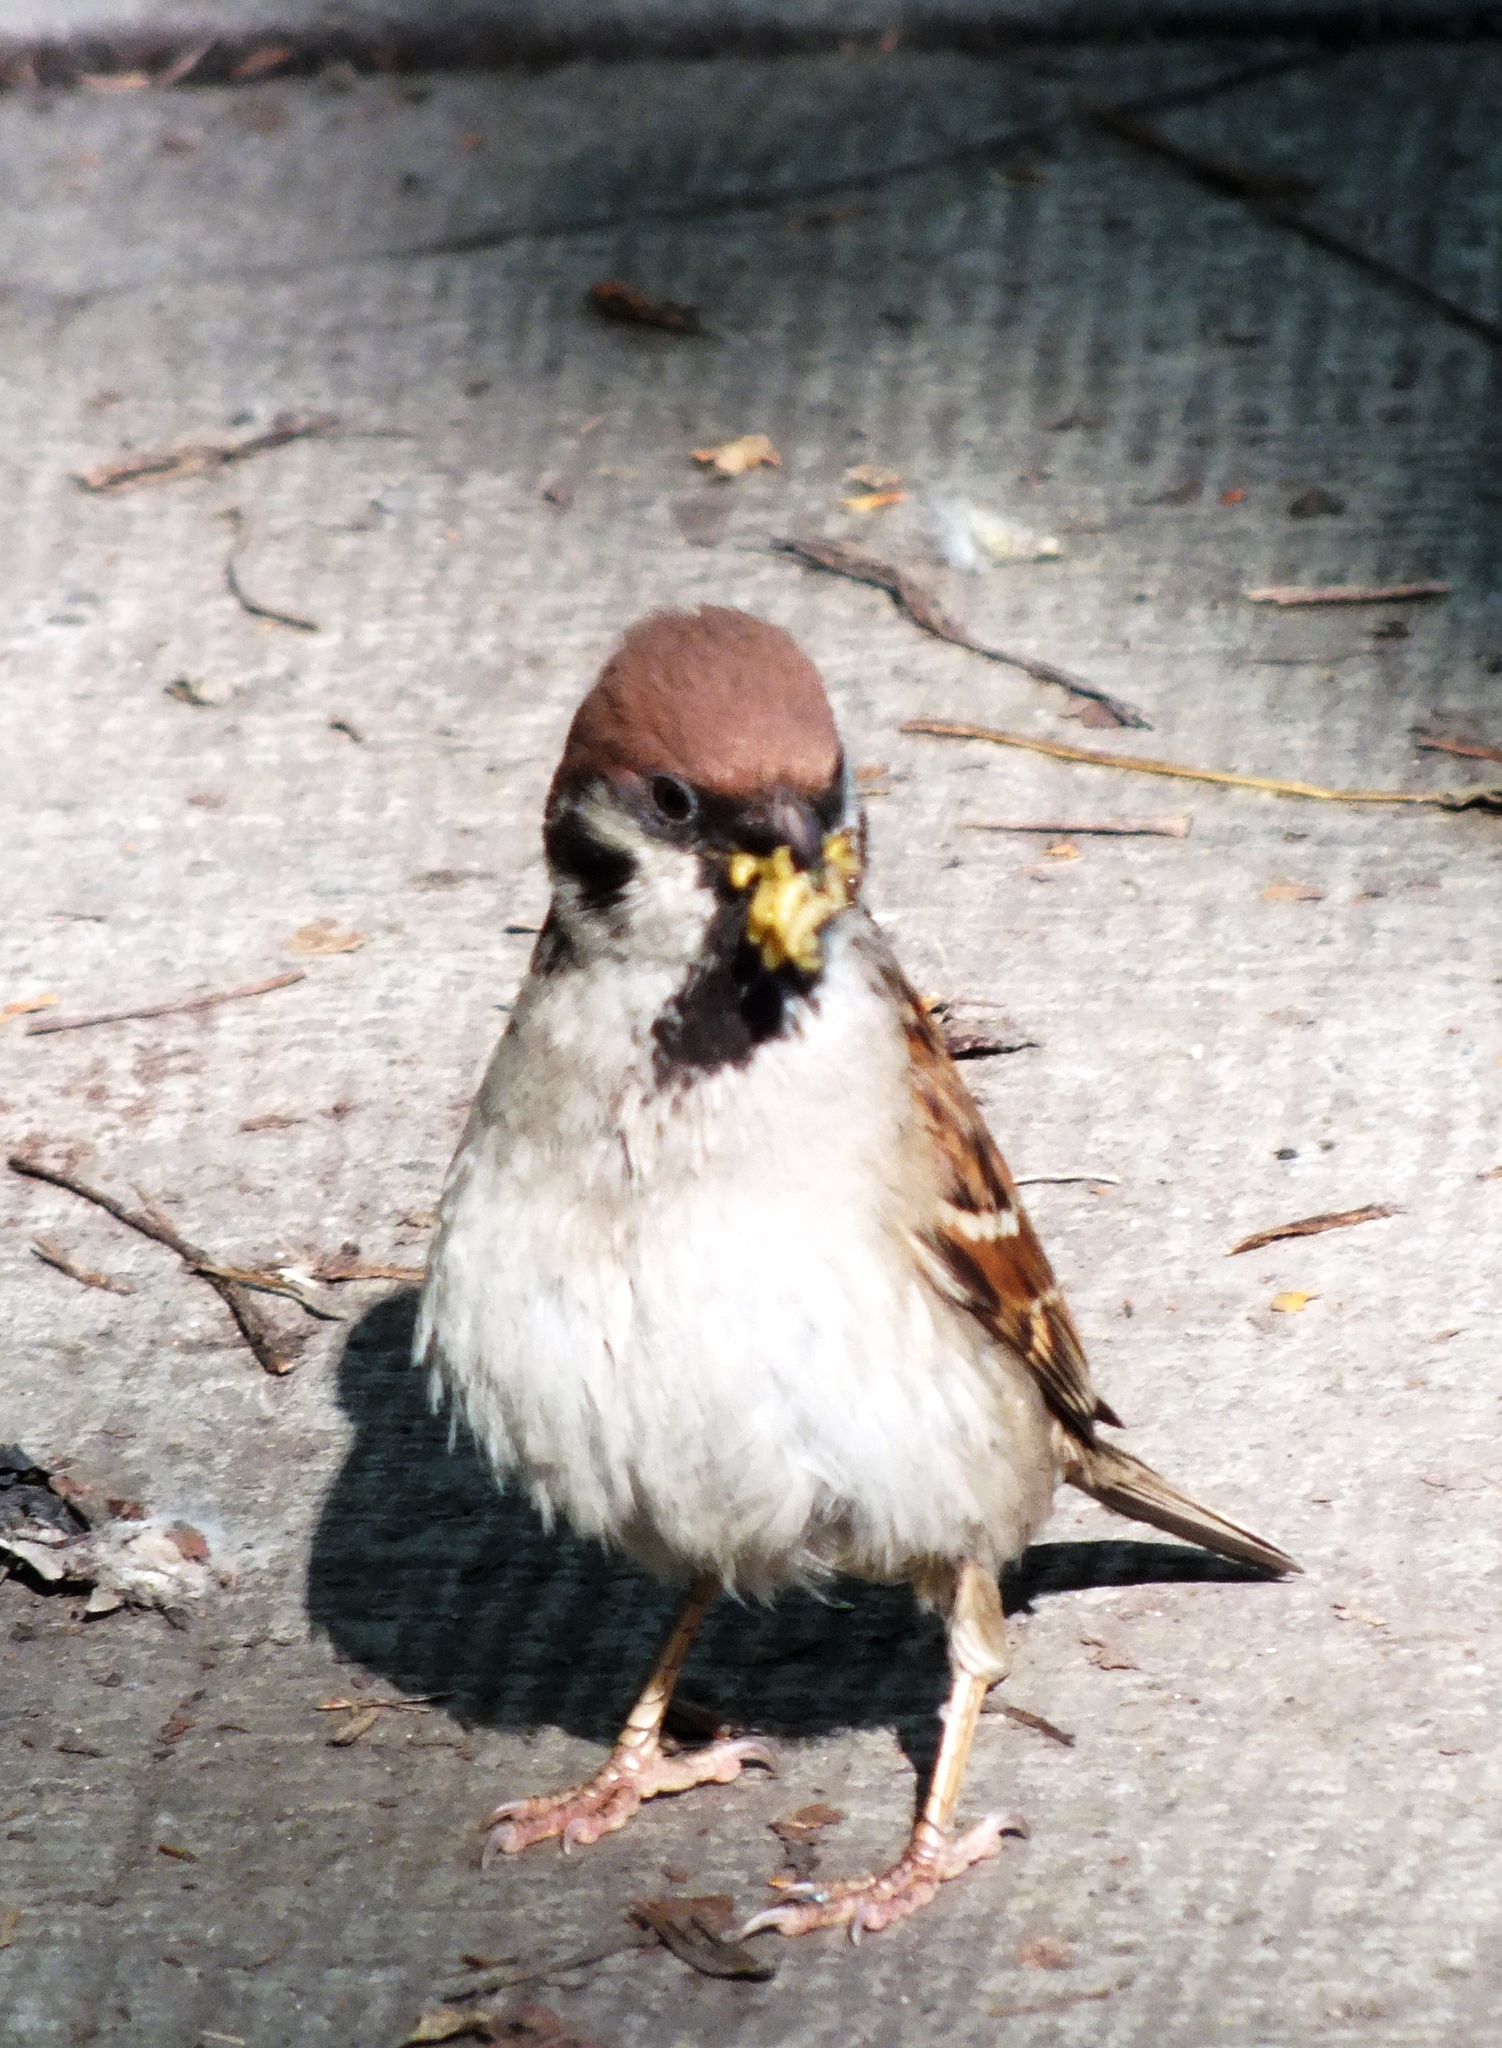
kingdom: Animalia
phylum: Chordata
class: Aves
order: Passeriformes
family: Passeridae
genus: Passer
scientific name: Passer montanus
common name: Eurasian tree sparrow
